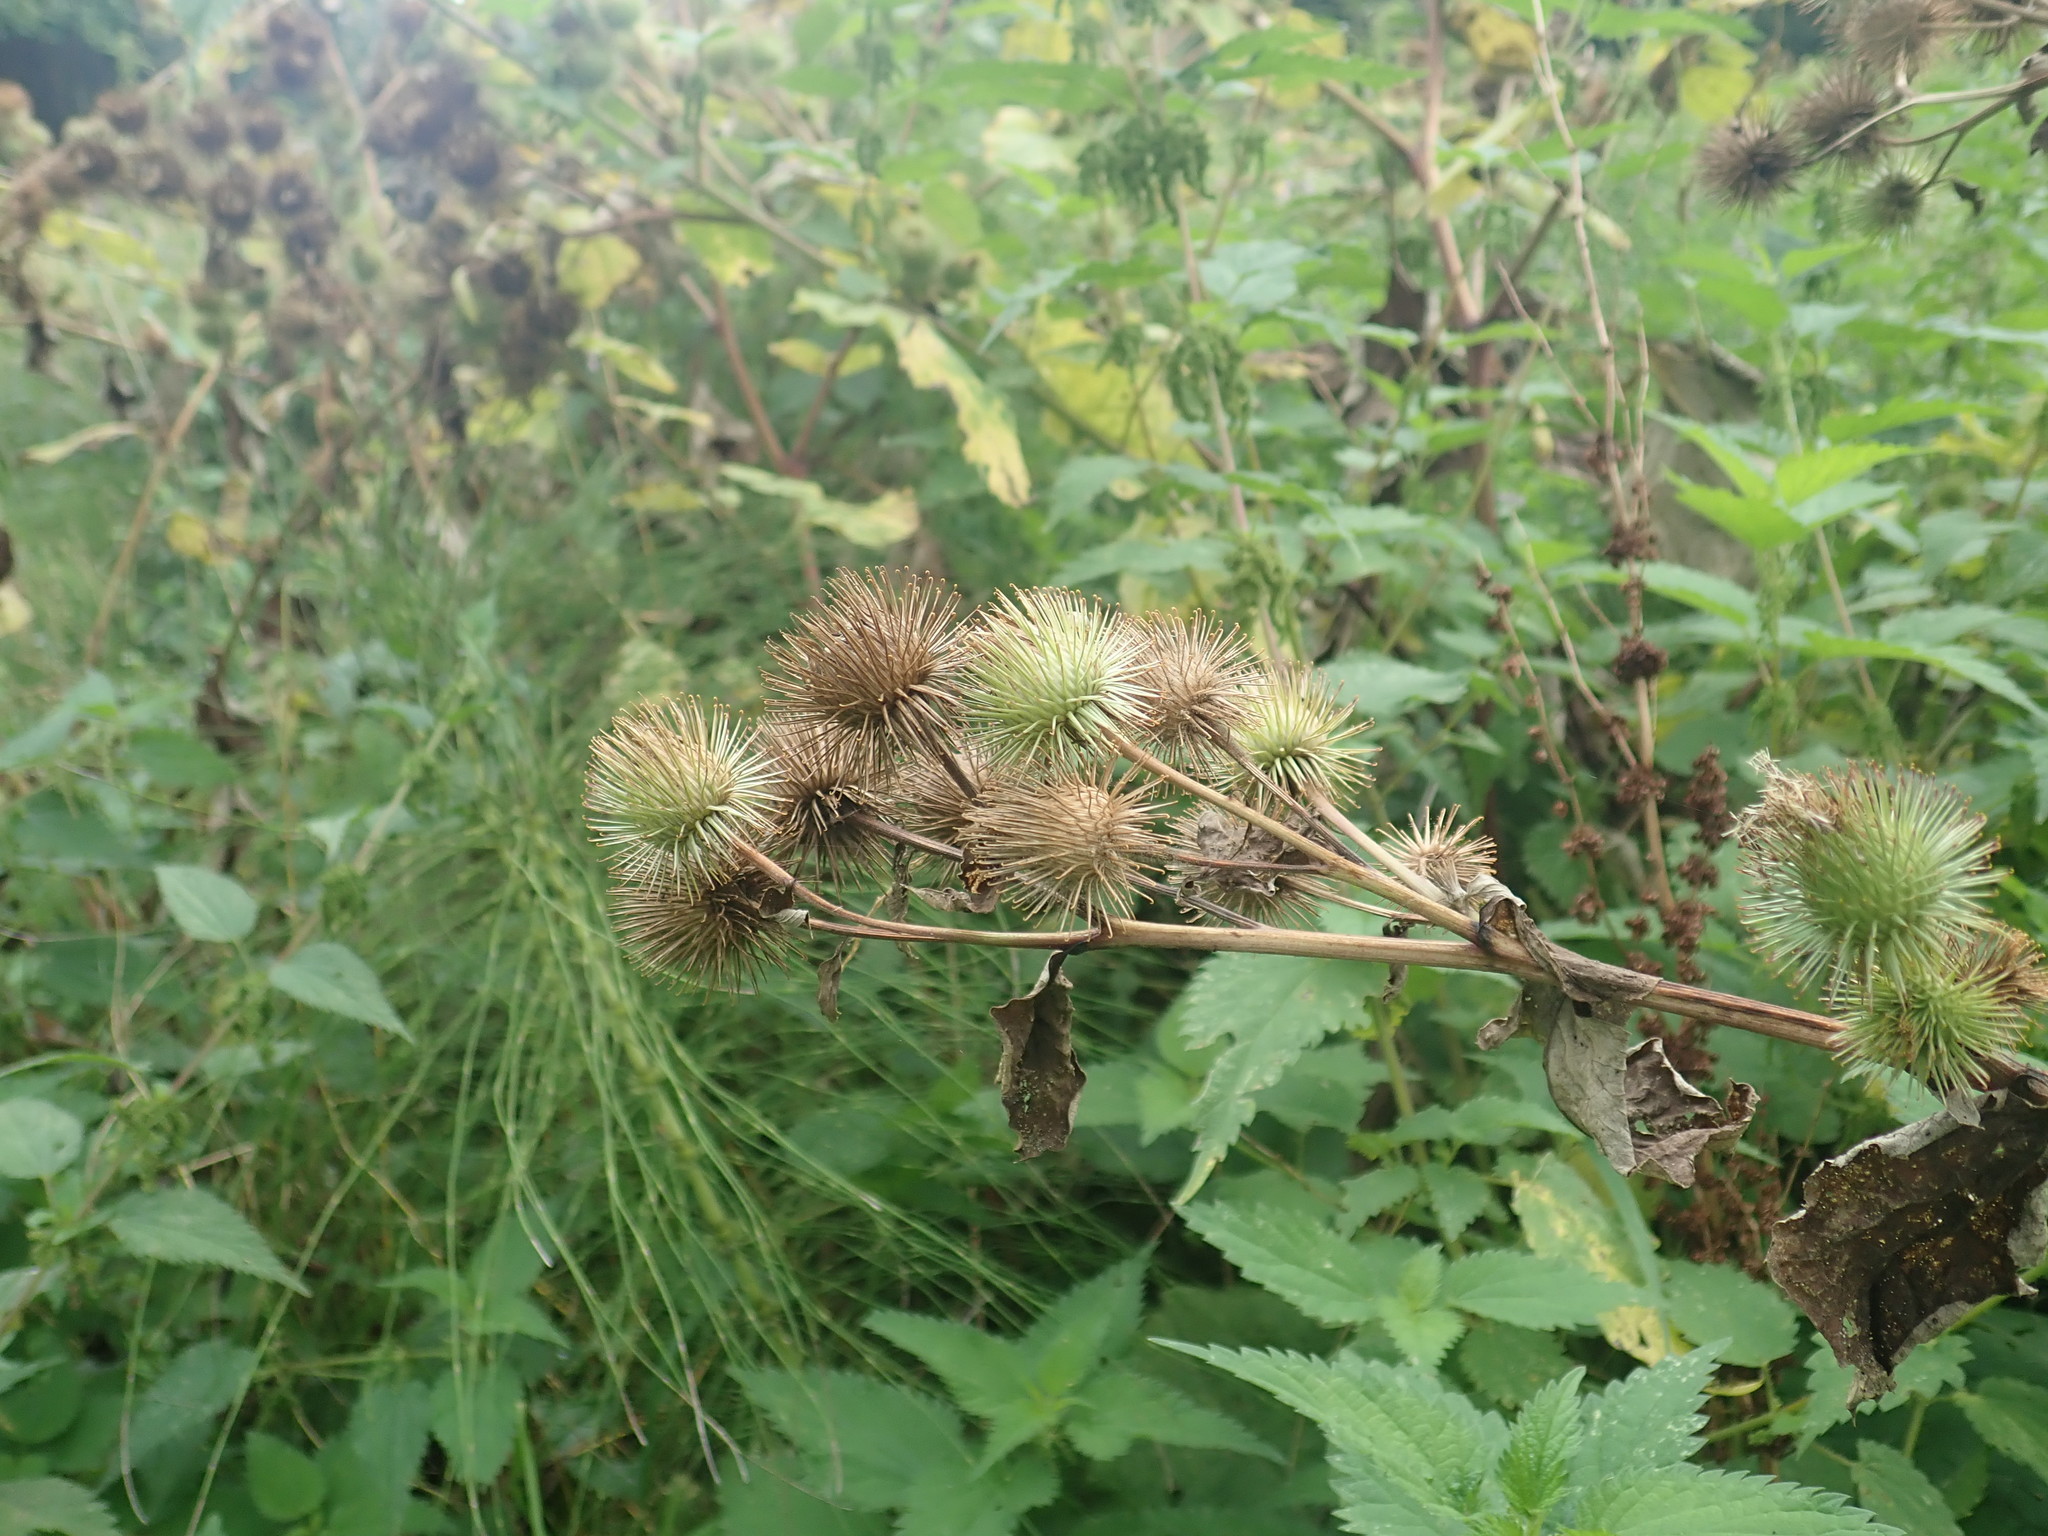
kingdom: Plantae
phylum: Tracheophyta
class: Magnoliopsida
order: Asterales
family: Asteraceae
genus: Arctium
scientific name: Arctium nemorosum
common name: Wood burdock
